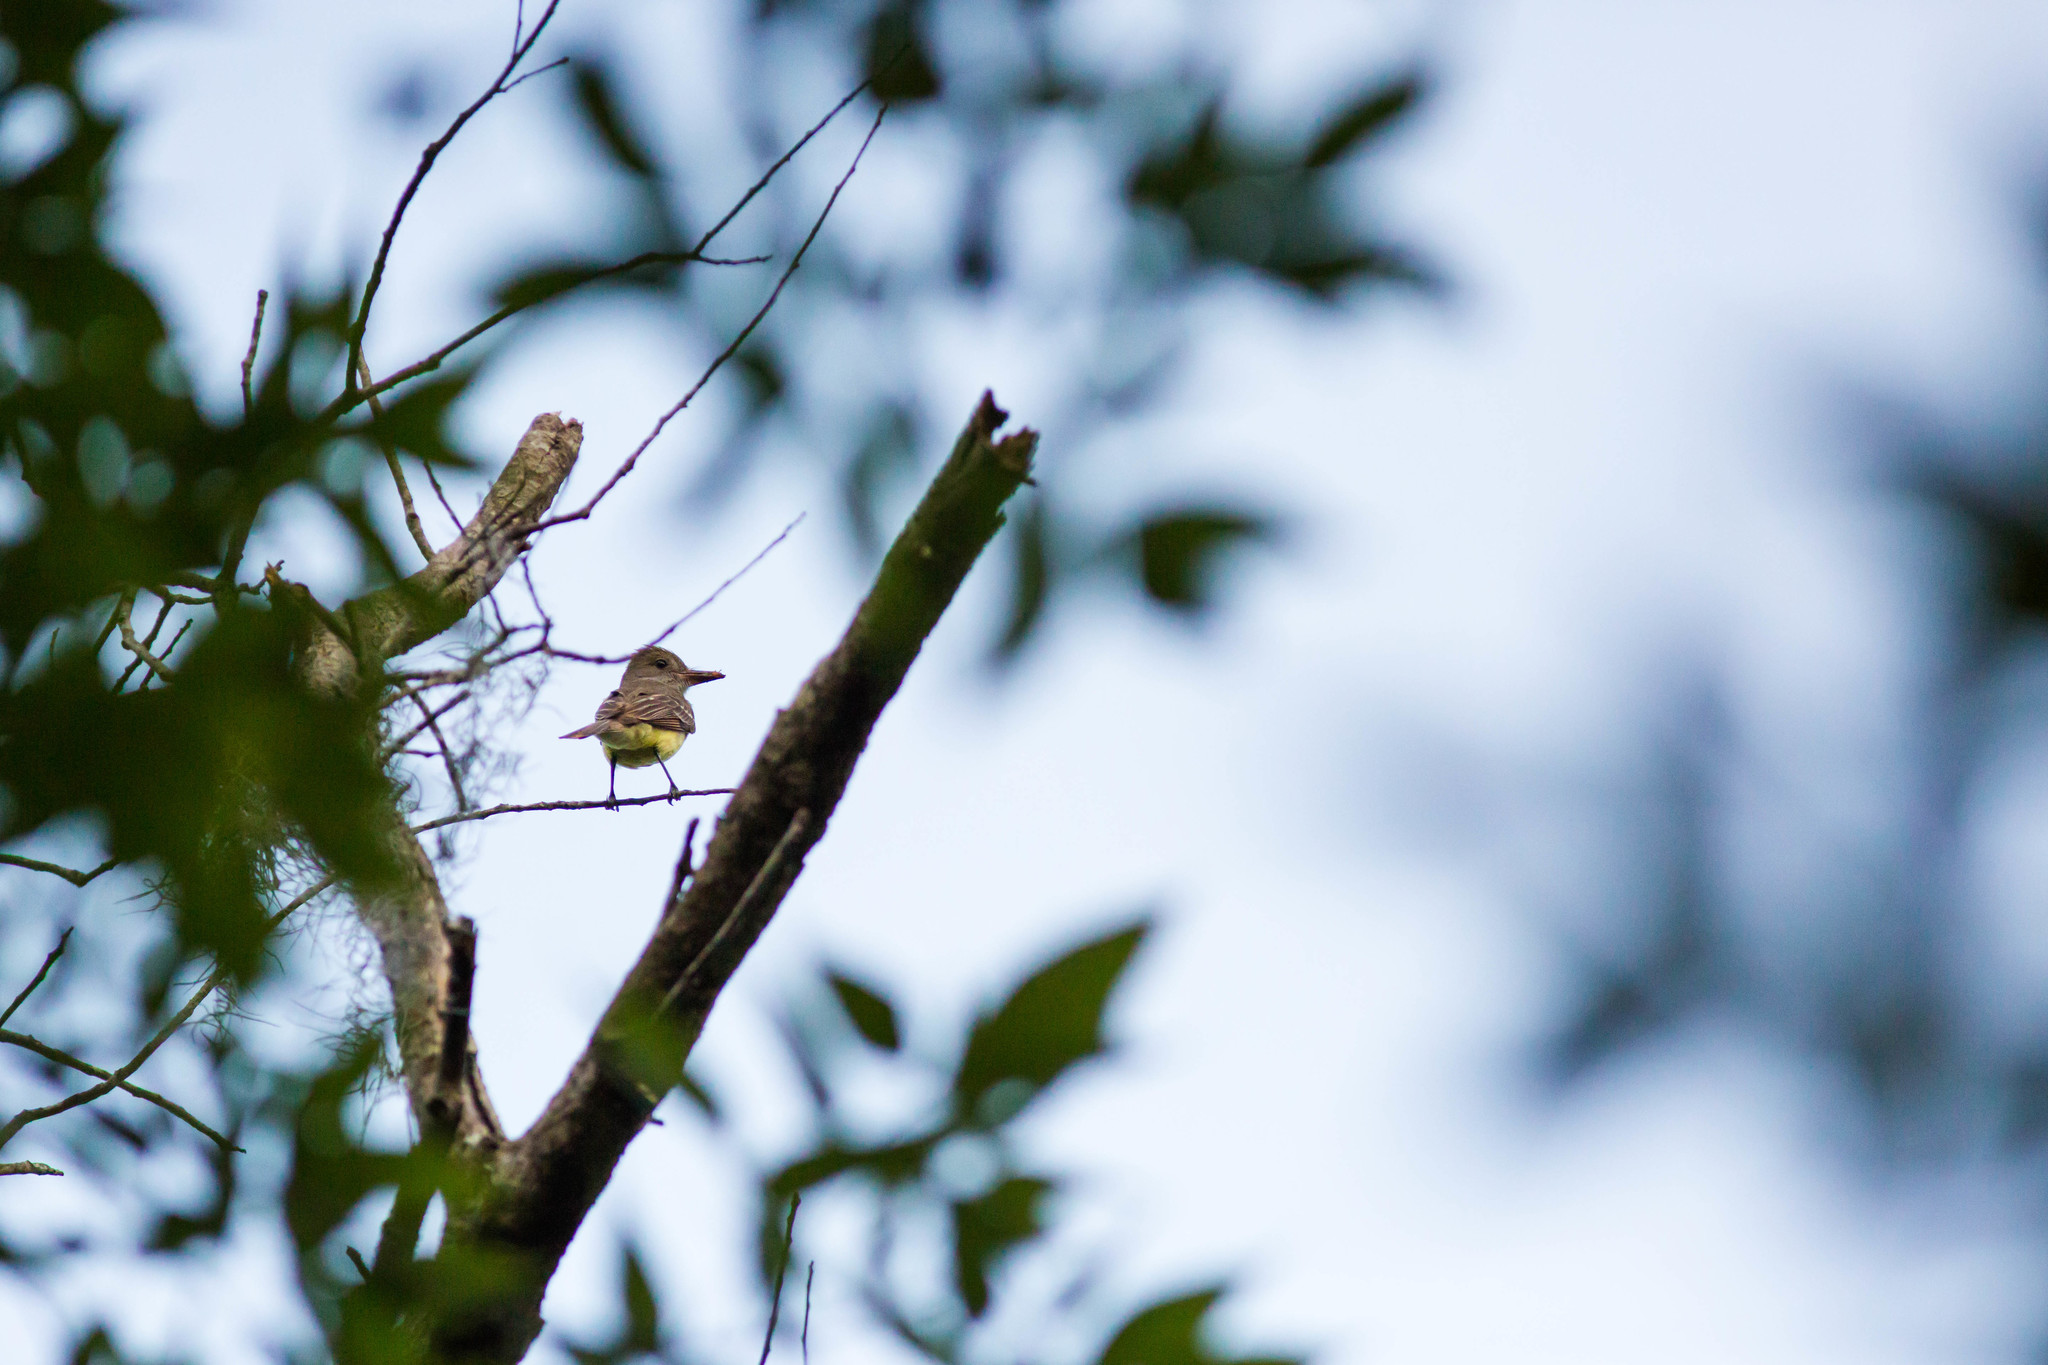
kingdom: Animalia
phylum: Chordata
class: Aves
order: Passeriformes
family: Tyrannidae
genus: Myiarchus
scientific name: Myiarchus crinitus
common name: Great crested flycatcher
